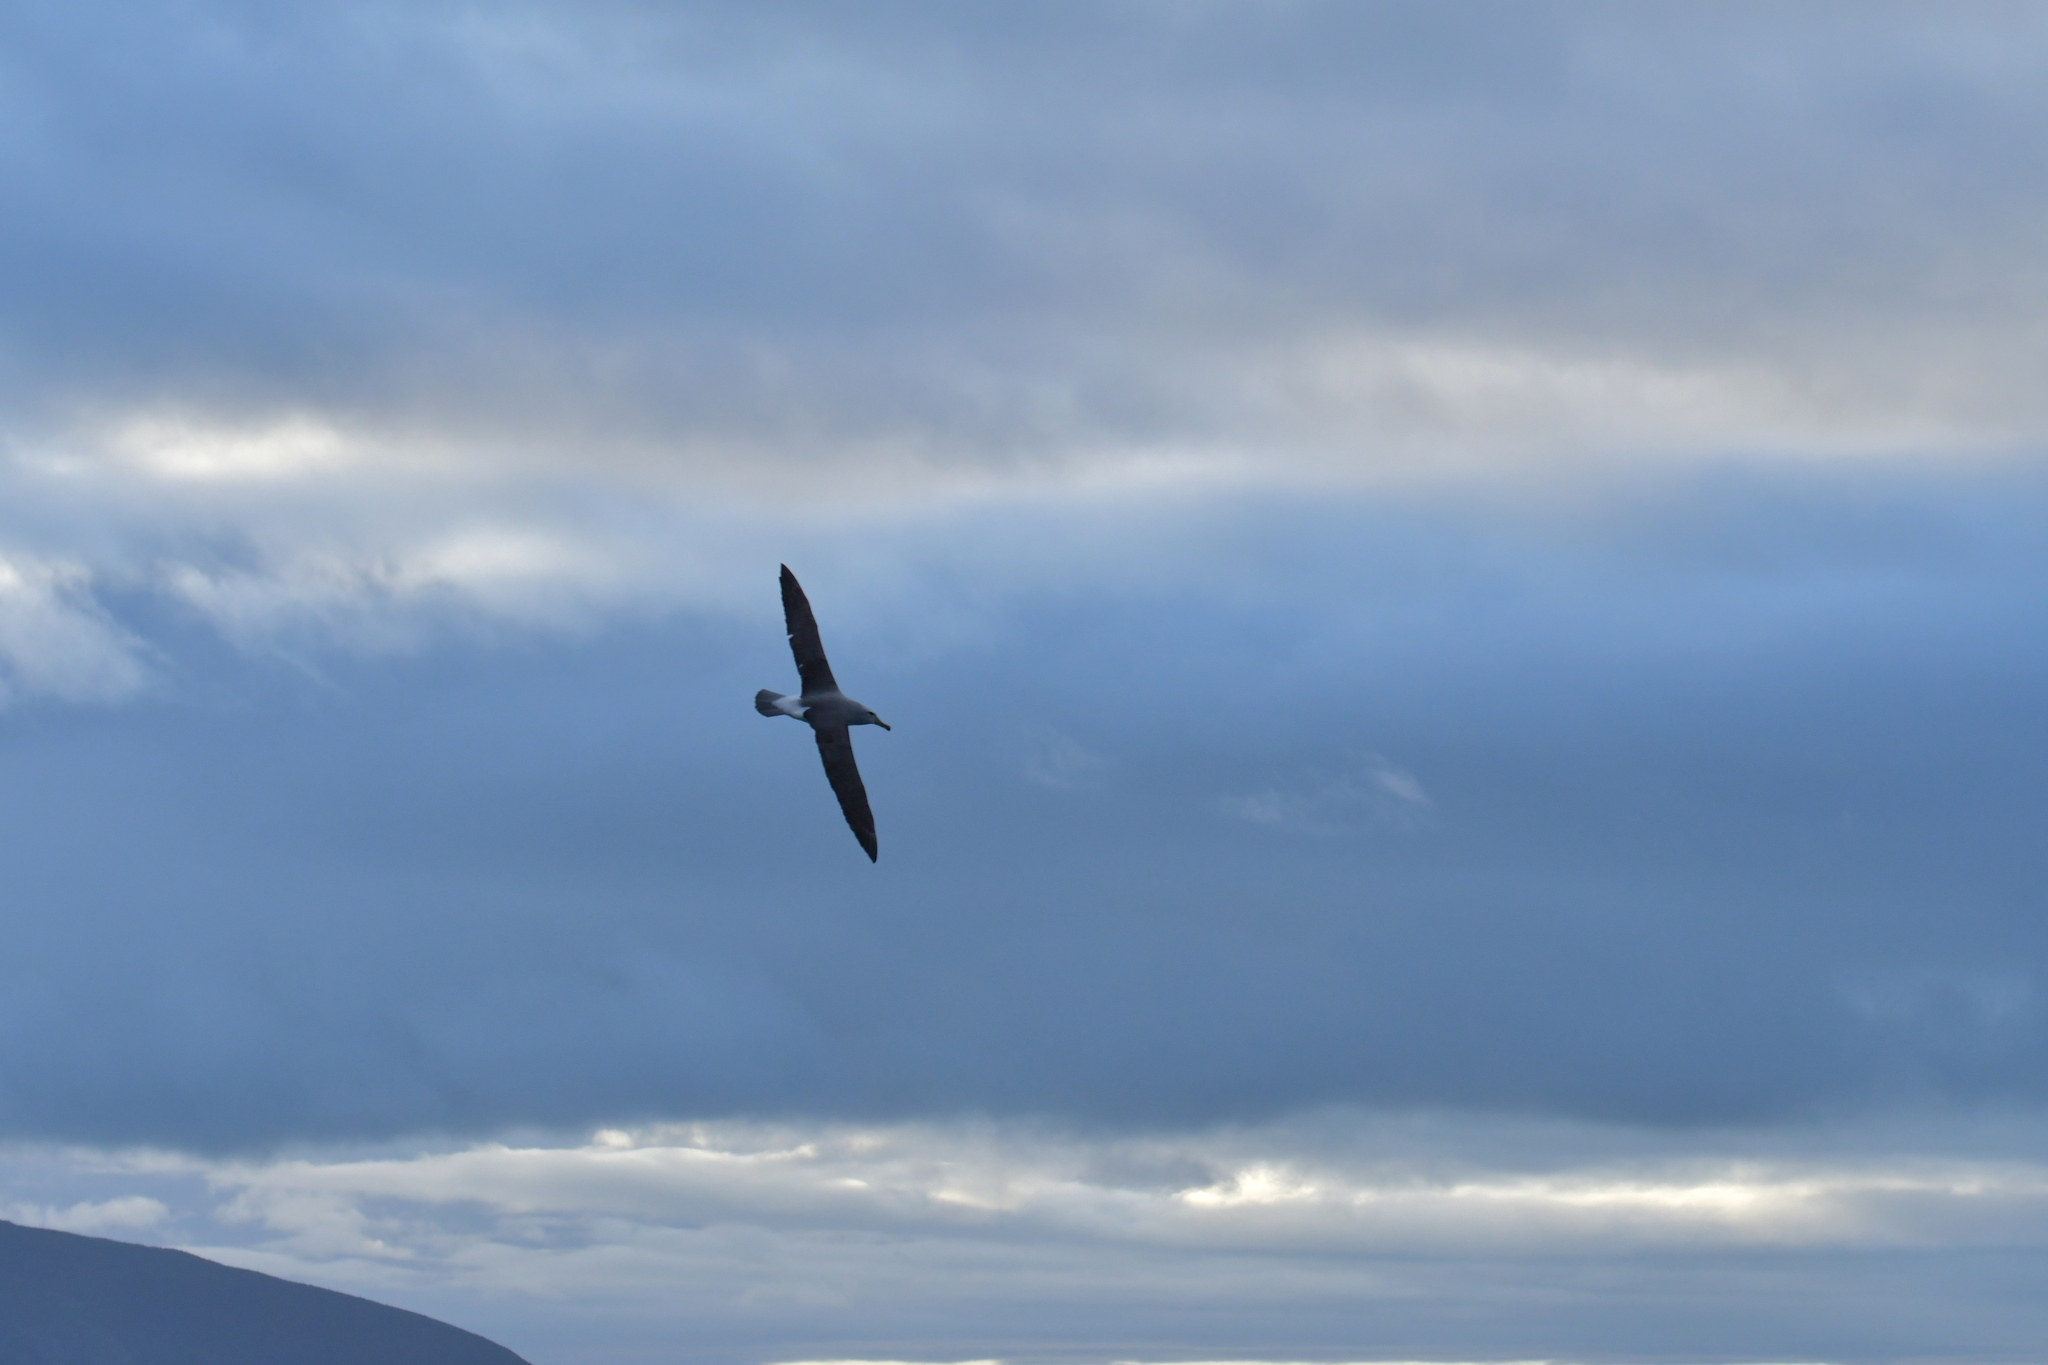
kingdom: Animalia
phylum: Chordata
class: Aves
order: Procellariiformes
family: Diomedeidae
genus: Thalassarche
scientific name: Thalassarche salvini
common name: Salvin's albatross
